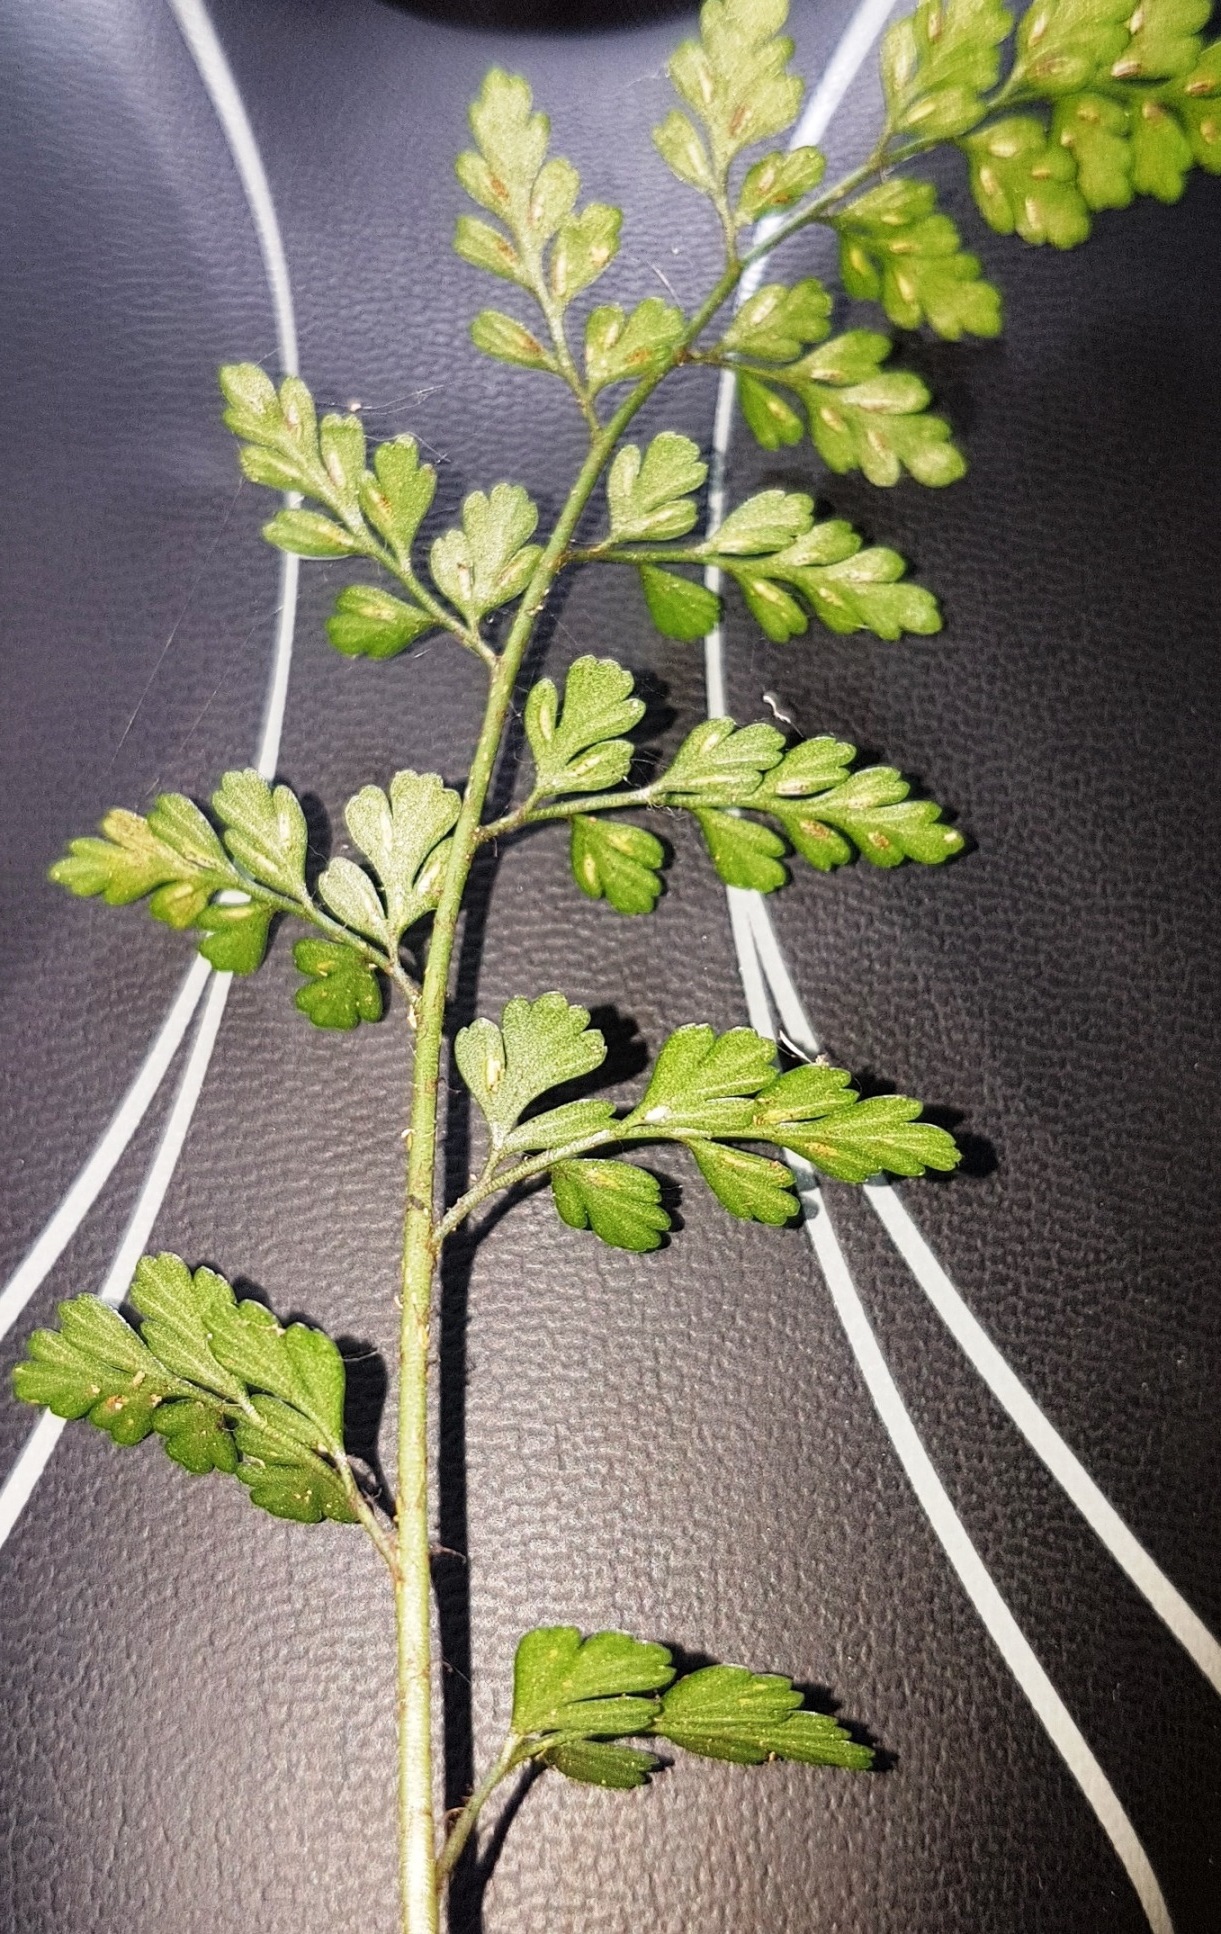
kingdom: Plantae
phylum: Tracheophyta
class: Polypodiopsida
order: Polypodiales
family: Aspleniaceae
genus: Asplenium
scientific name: Asplenium hookerianum
